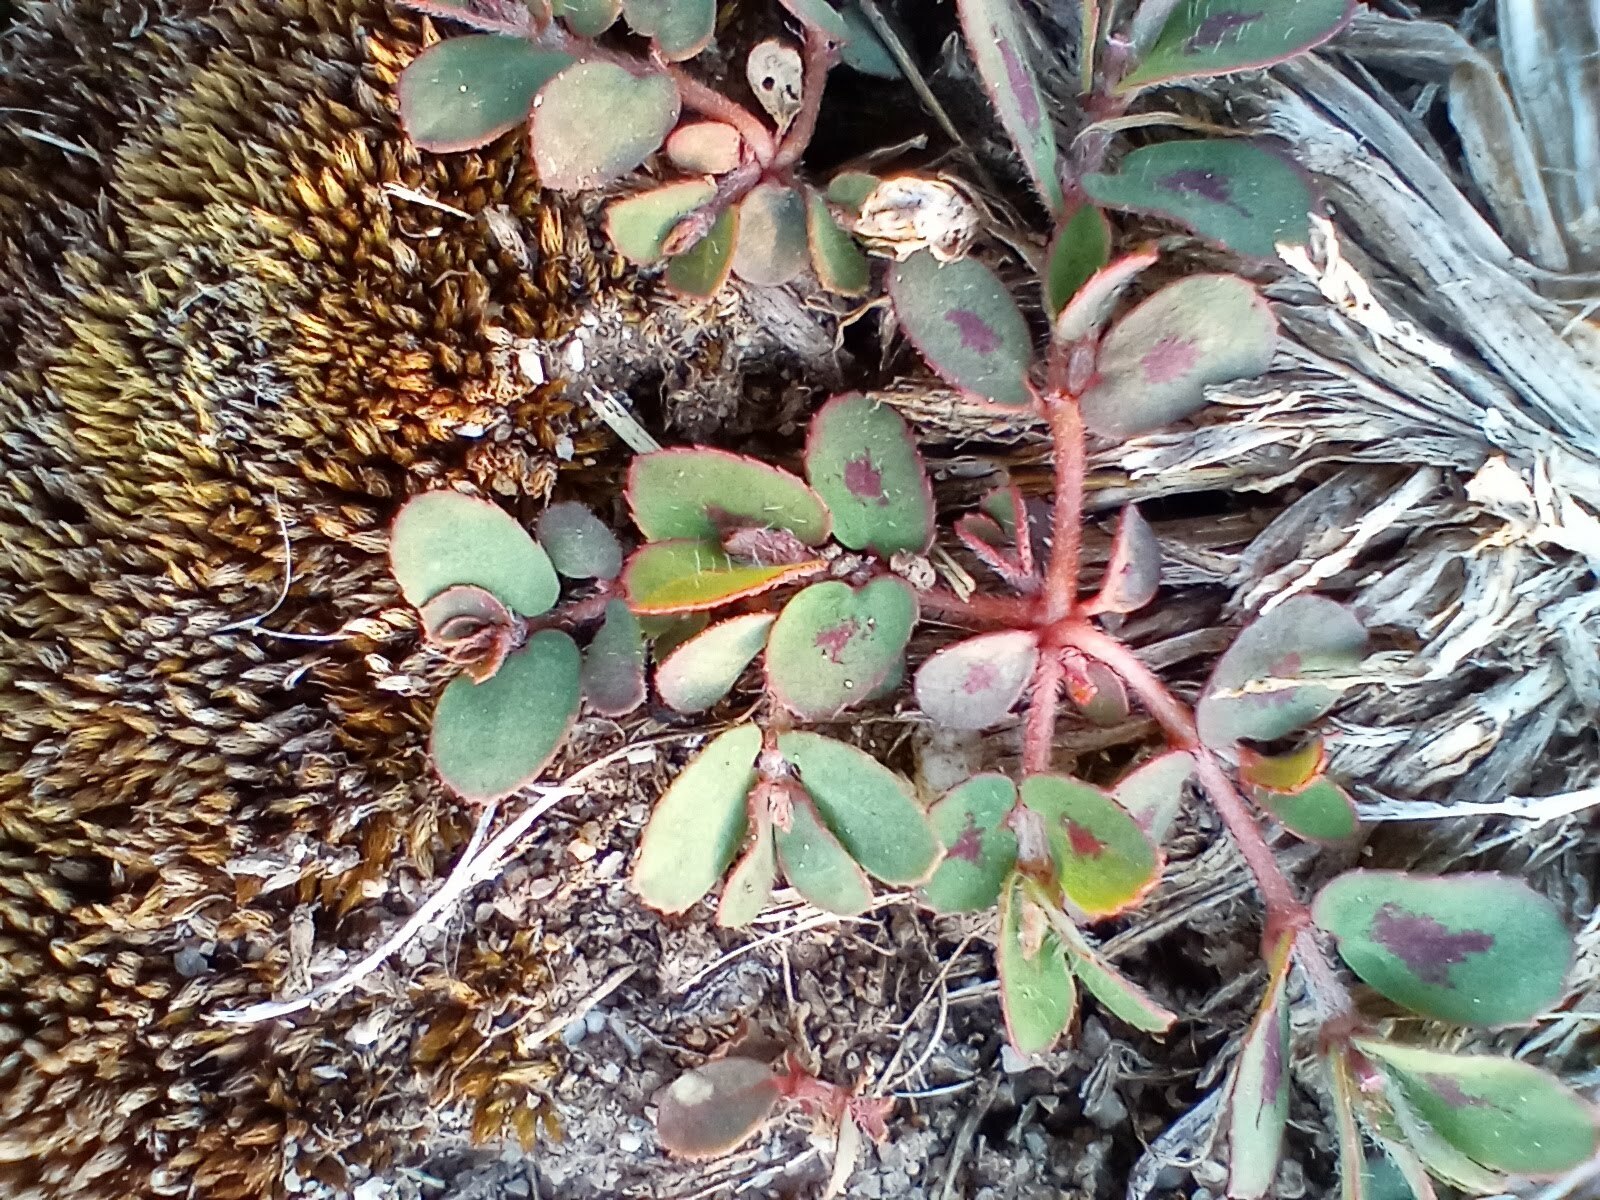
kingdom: Plantae
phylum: Tracheophyta
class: Magnoliopsida
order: Malpighiales
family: Euphorbiaceae
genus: Euphorbia
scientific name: Euphorbia maculata
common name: Spotted spurge
